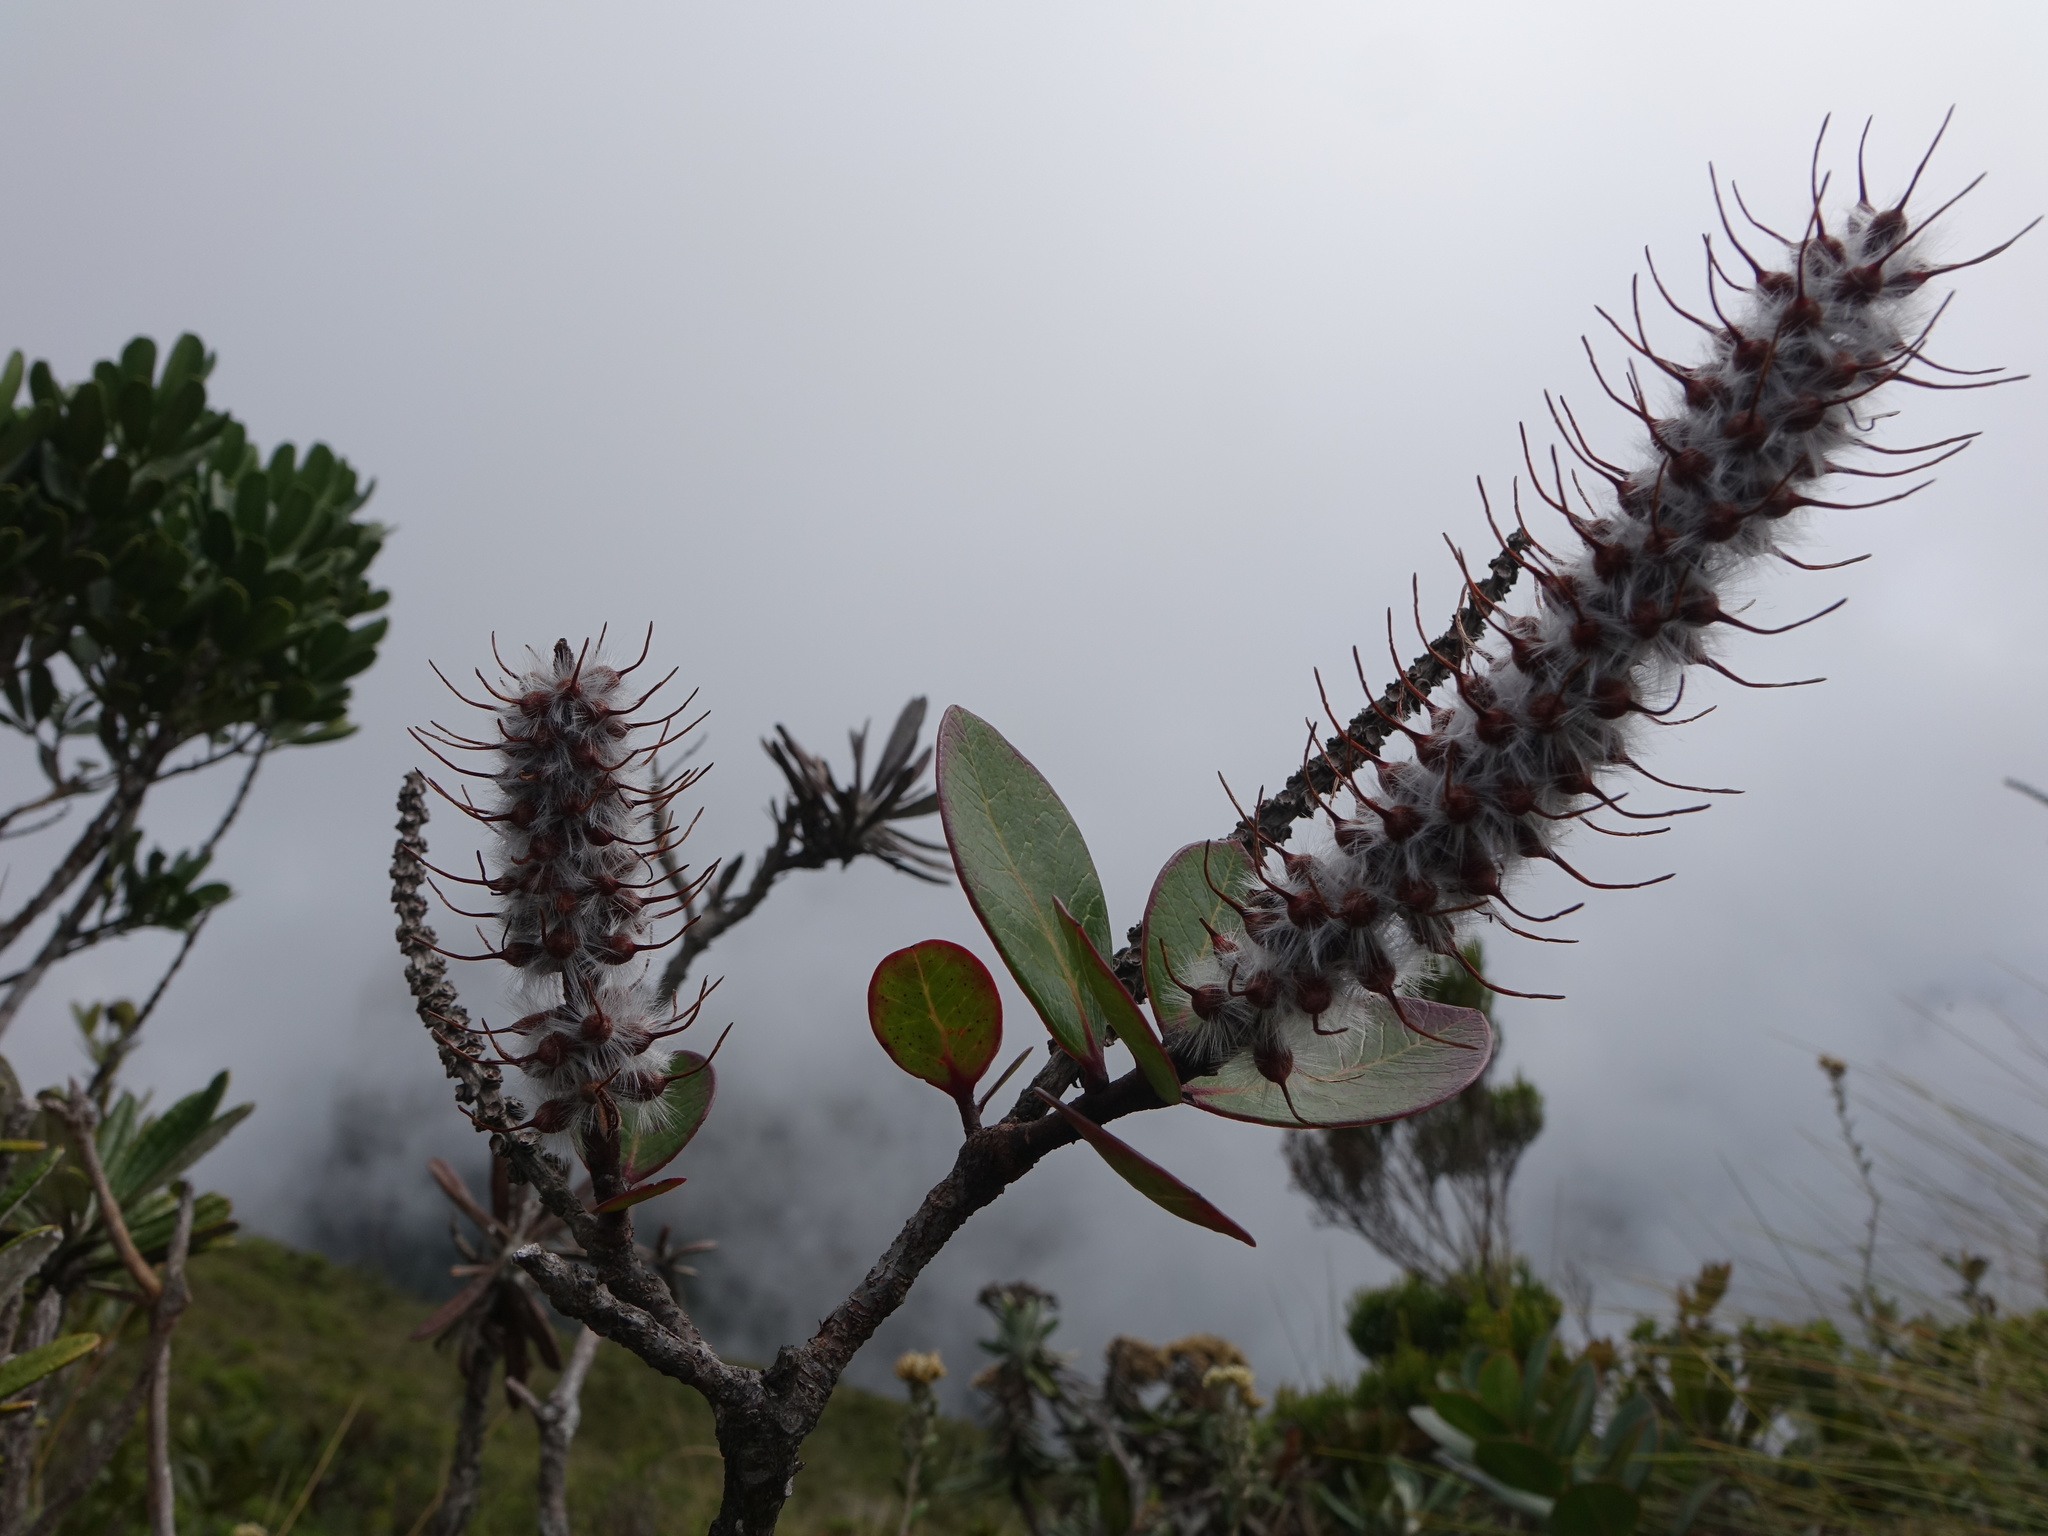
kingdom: Plantae
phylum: Tracheophyta
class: Magnoliopsida
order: Proteales
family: Proteaceae
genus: Faurea
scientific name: Faurea coriacea
